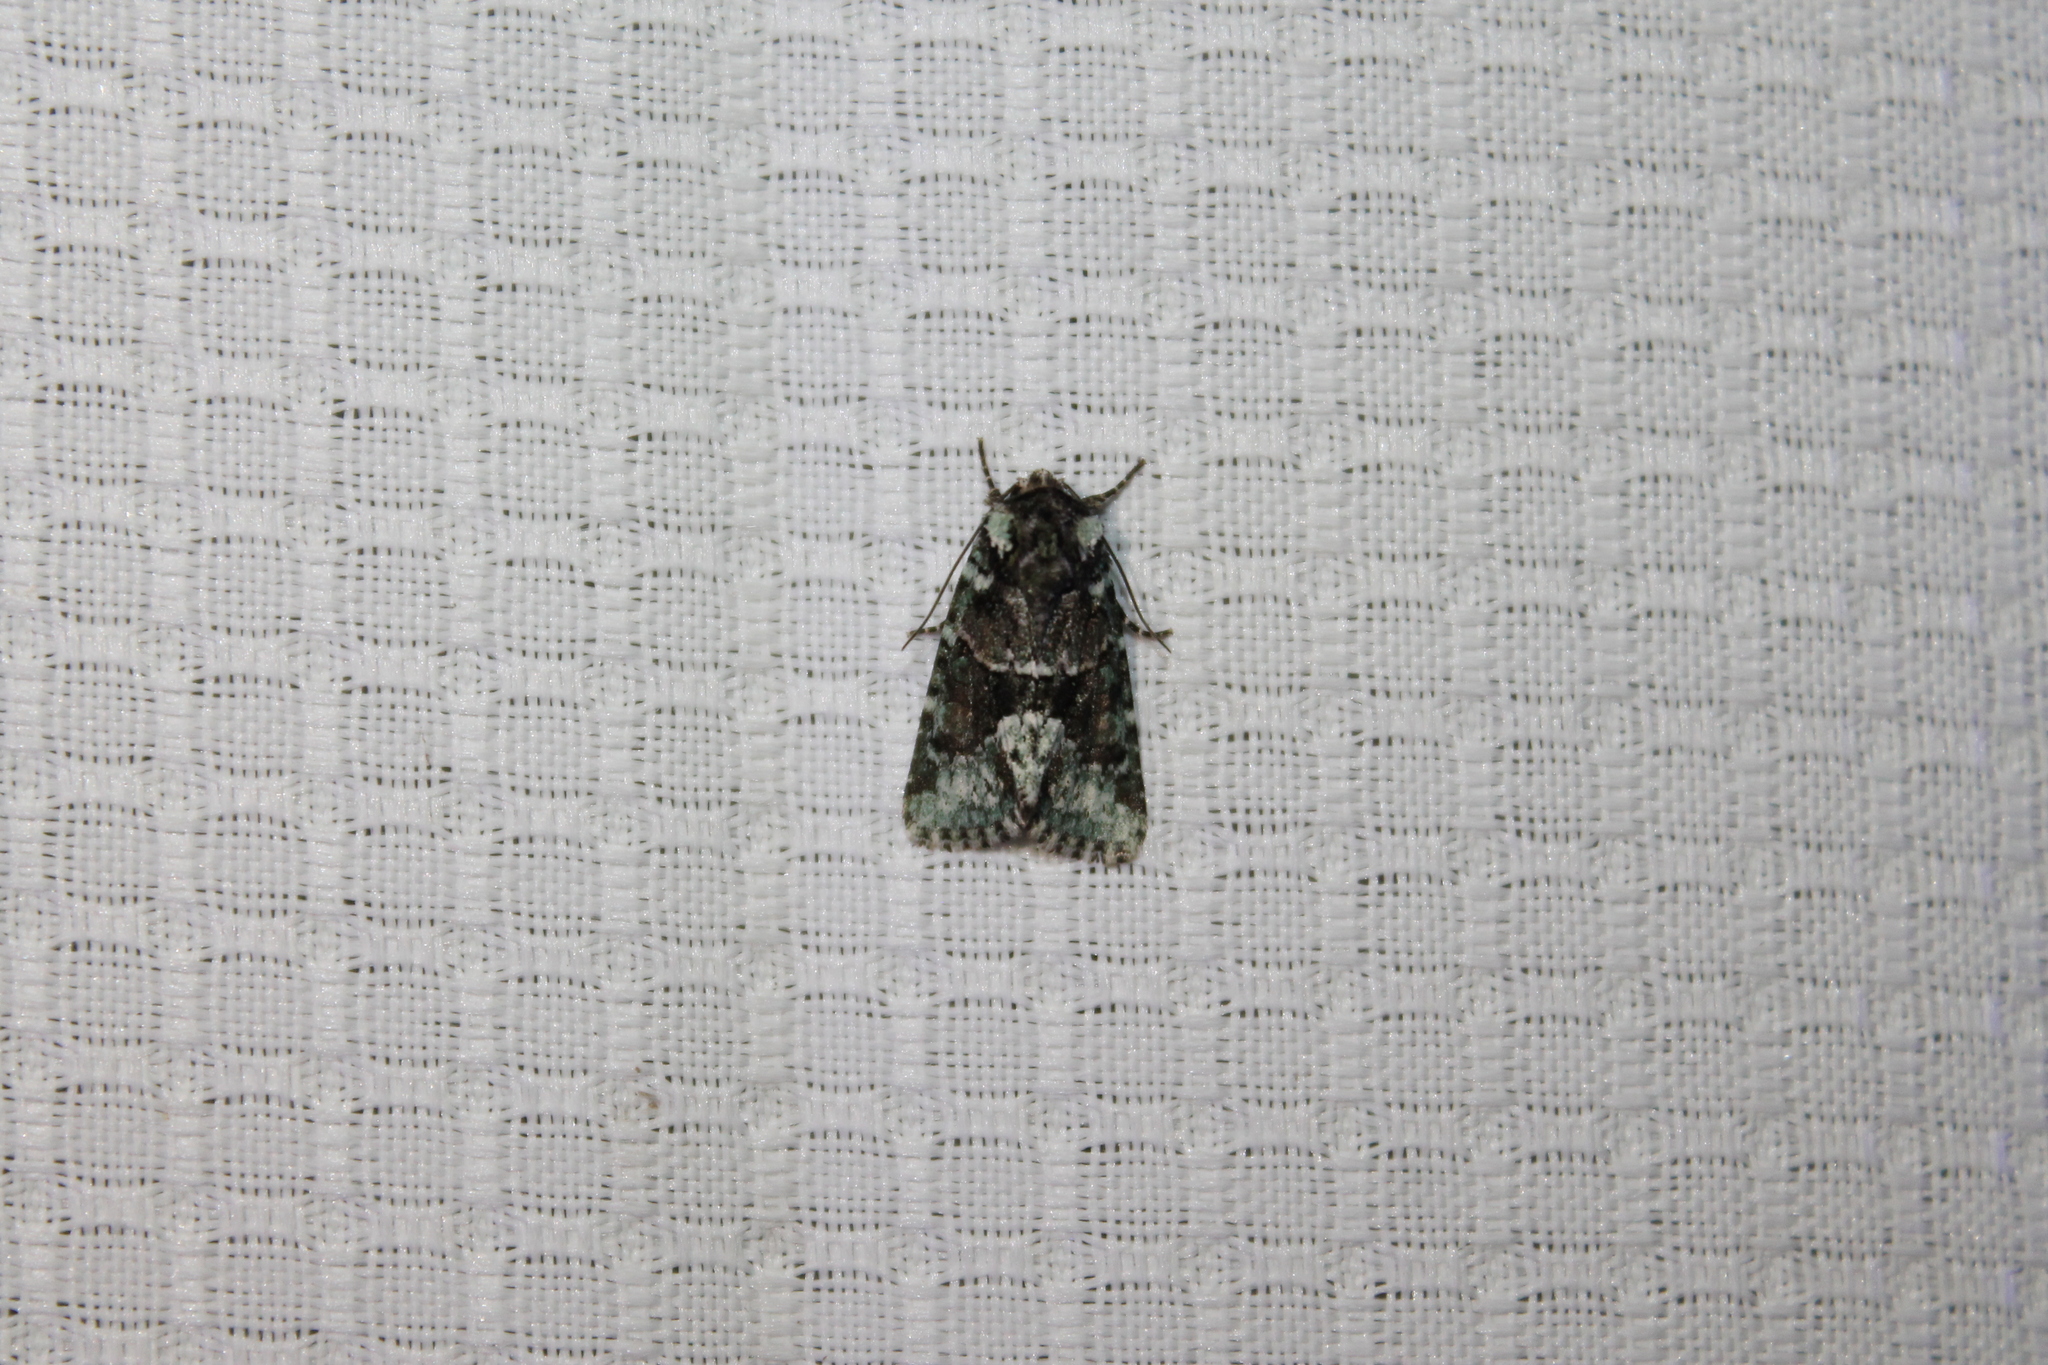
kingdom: Animalia
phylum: Arthropoda
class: Insecta
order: Lepidoptera
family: Noctuidae
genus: Lacinipolia
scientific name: Lacinipolia explicata
